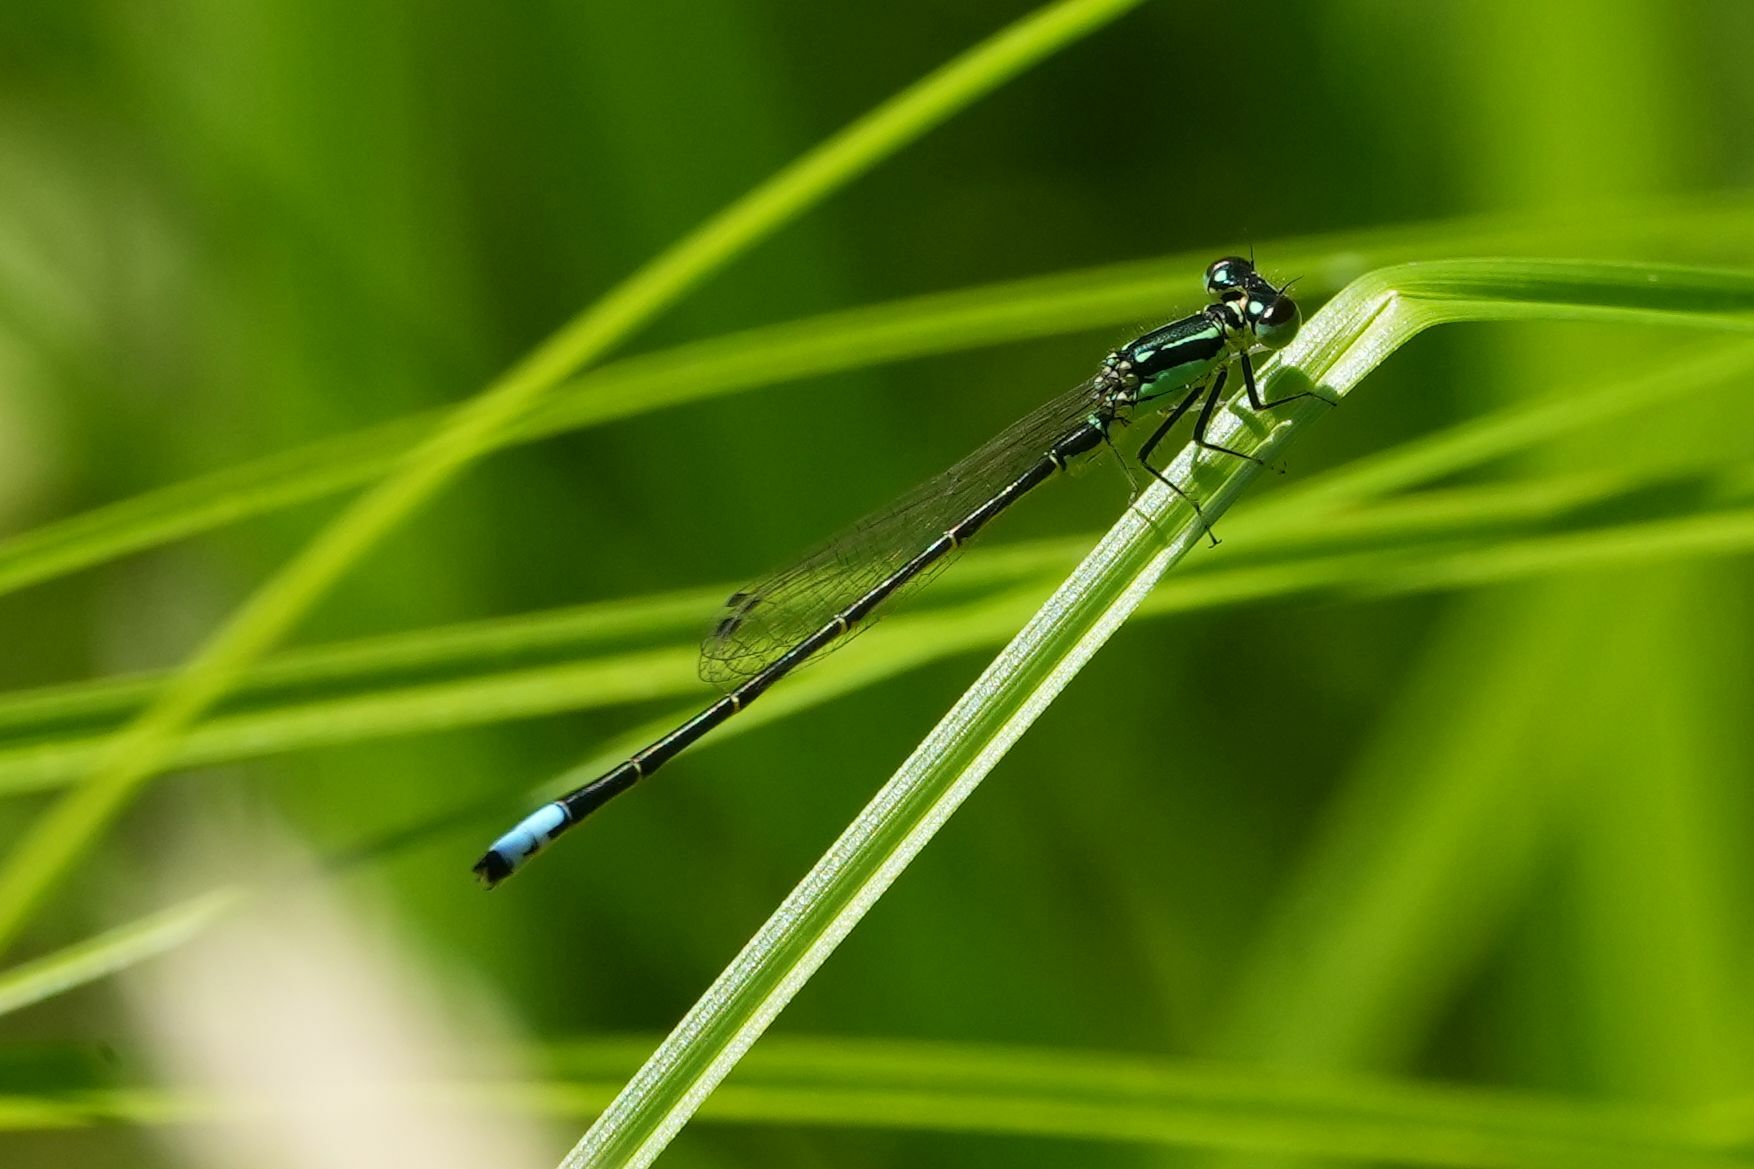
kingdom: Animalia
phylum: Arthropoda
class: Insecta
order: Odonata
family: Coenagrionidae
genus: Ischnura
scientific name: Ischnura verticalis
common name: Eastern forktail
